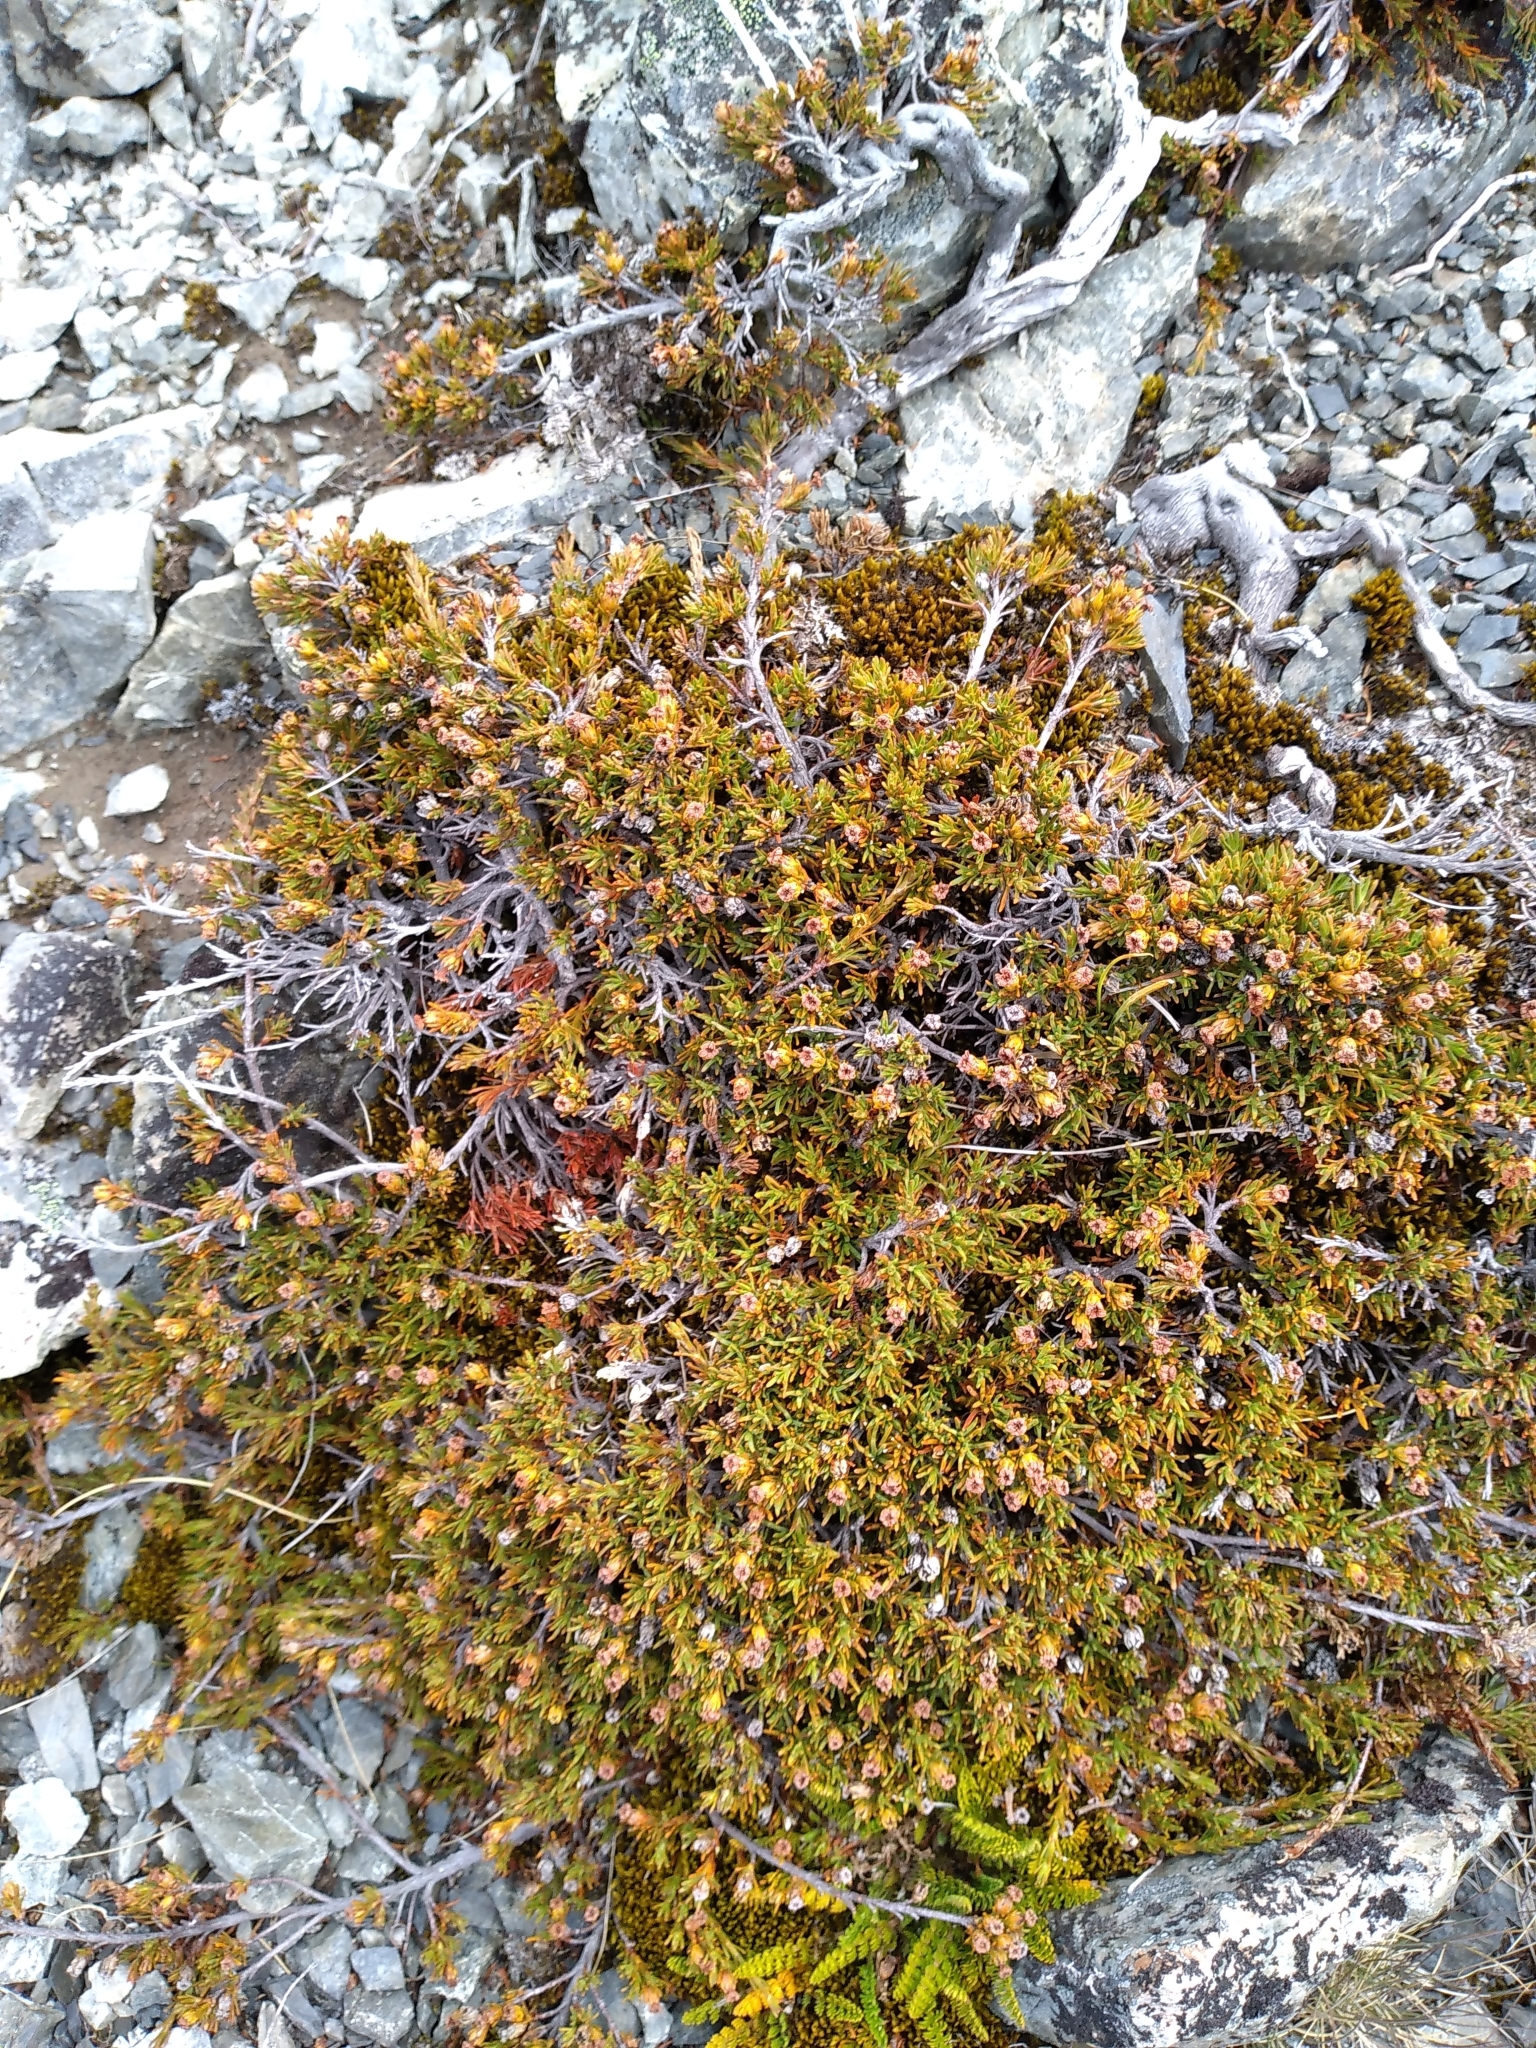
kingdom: Plantae
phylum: Tracheophyta
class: Magnoliopsida
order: Ericales
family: Ericaceae
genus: Dracophyllum
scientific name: Dracophyllum pronum
